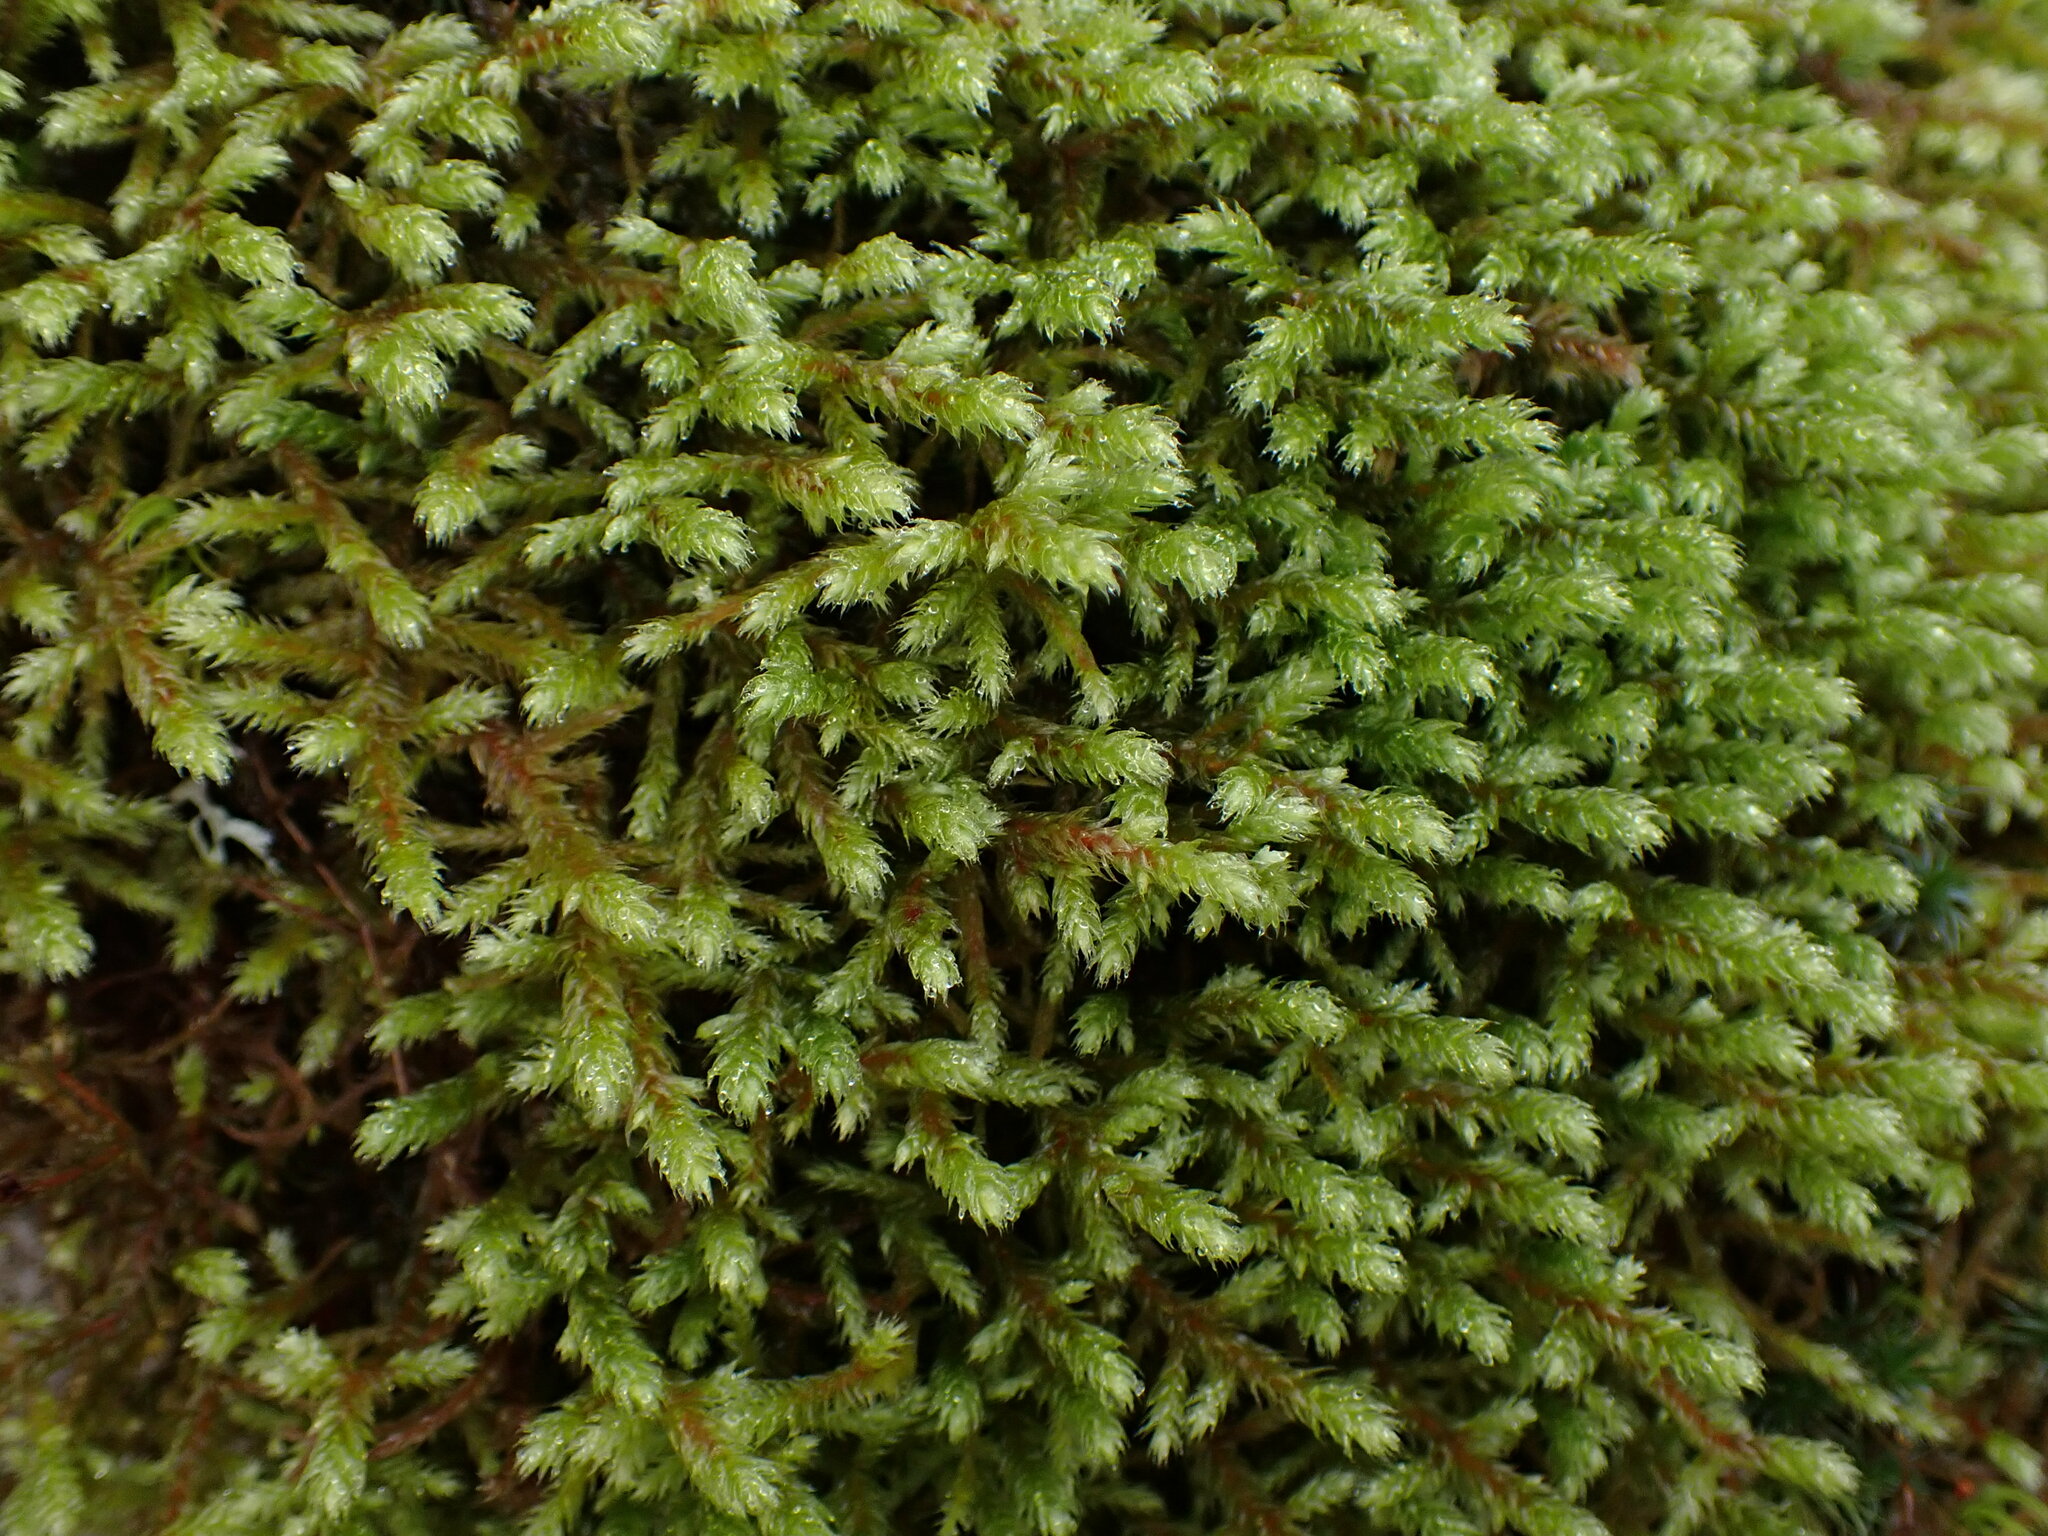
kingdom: Plantae
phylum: Bryophyta
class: Bryopsida
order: Hypnales
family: Antitrichiaceae
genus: Antitrichia
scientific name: Antitrichia curtipendula
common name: Pendulous wing-moss
